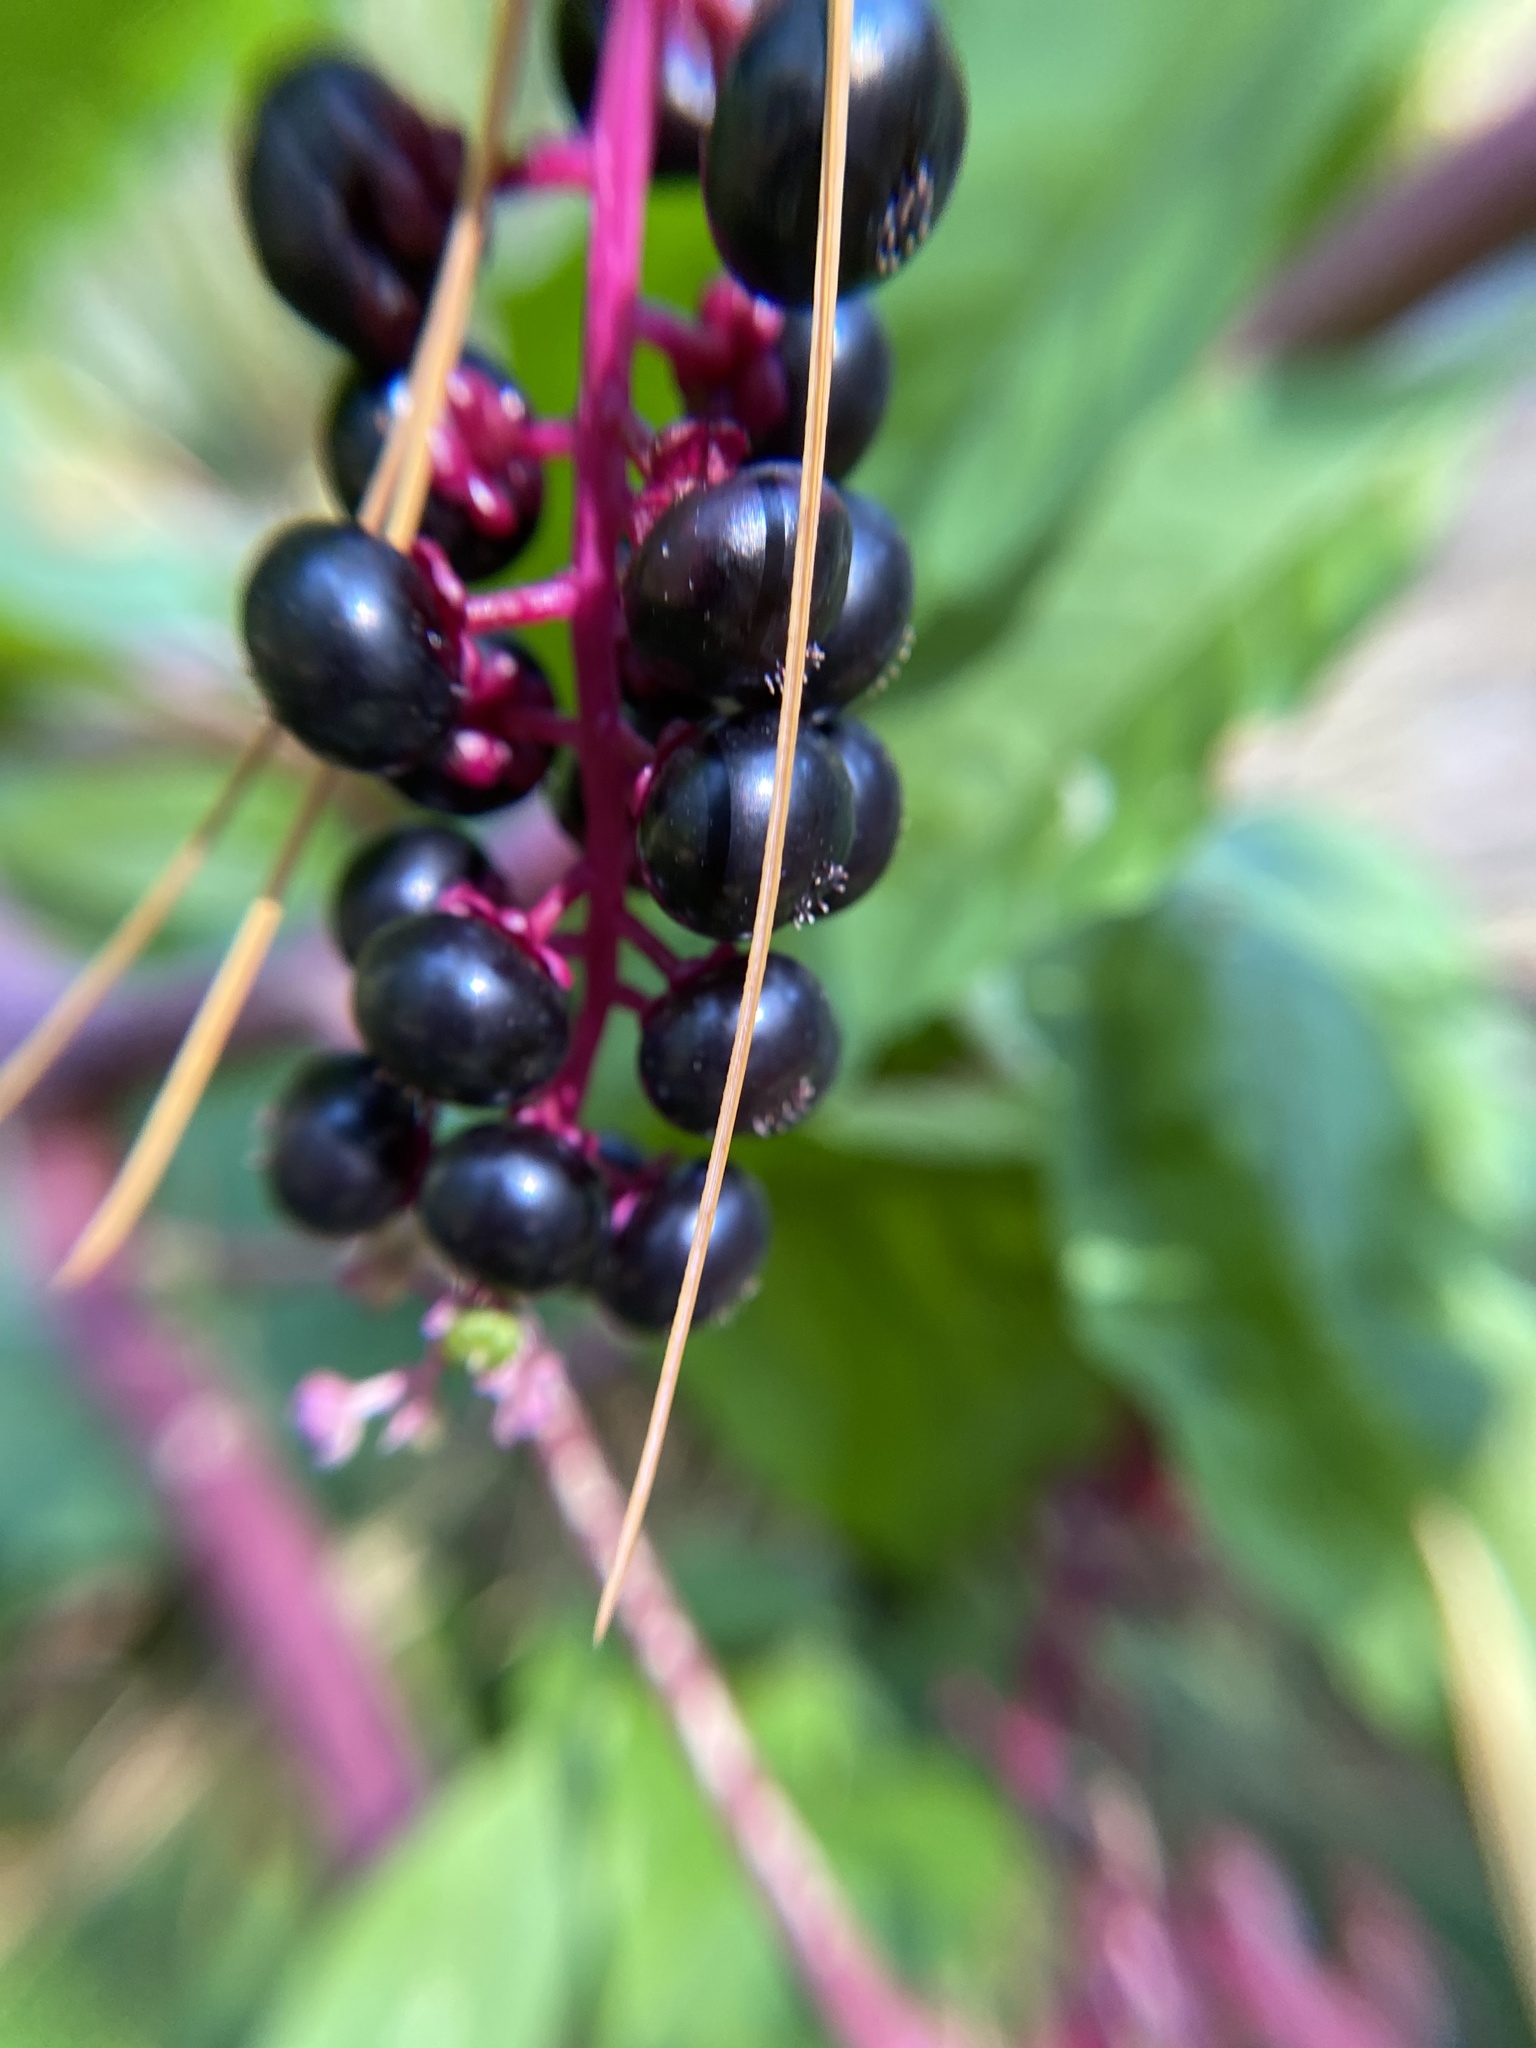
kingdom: Plantae
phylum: Tracheophyta
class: Magnoliopsida
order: Caryophyllales
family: Phytolaccaceae
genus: Phytolacca
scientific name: Phytolacca americana
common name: American pokeweed
